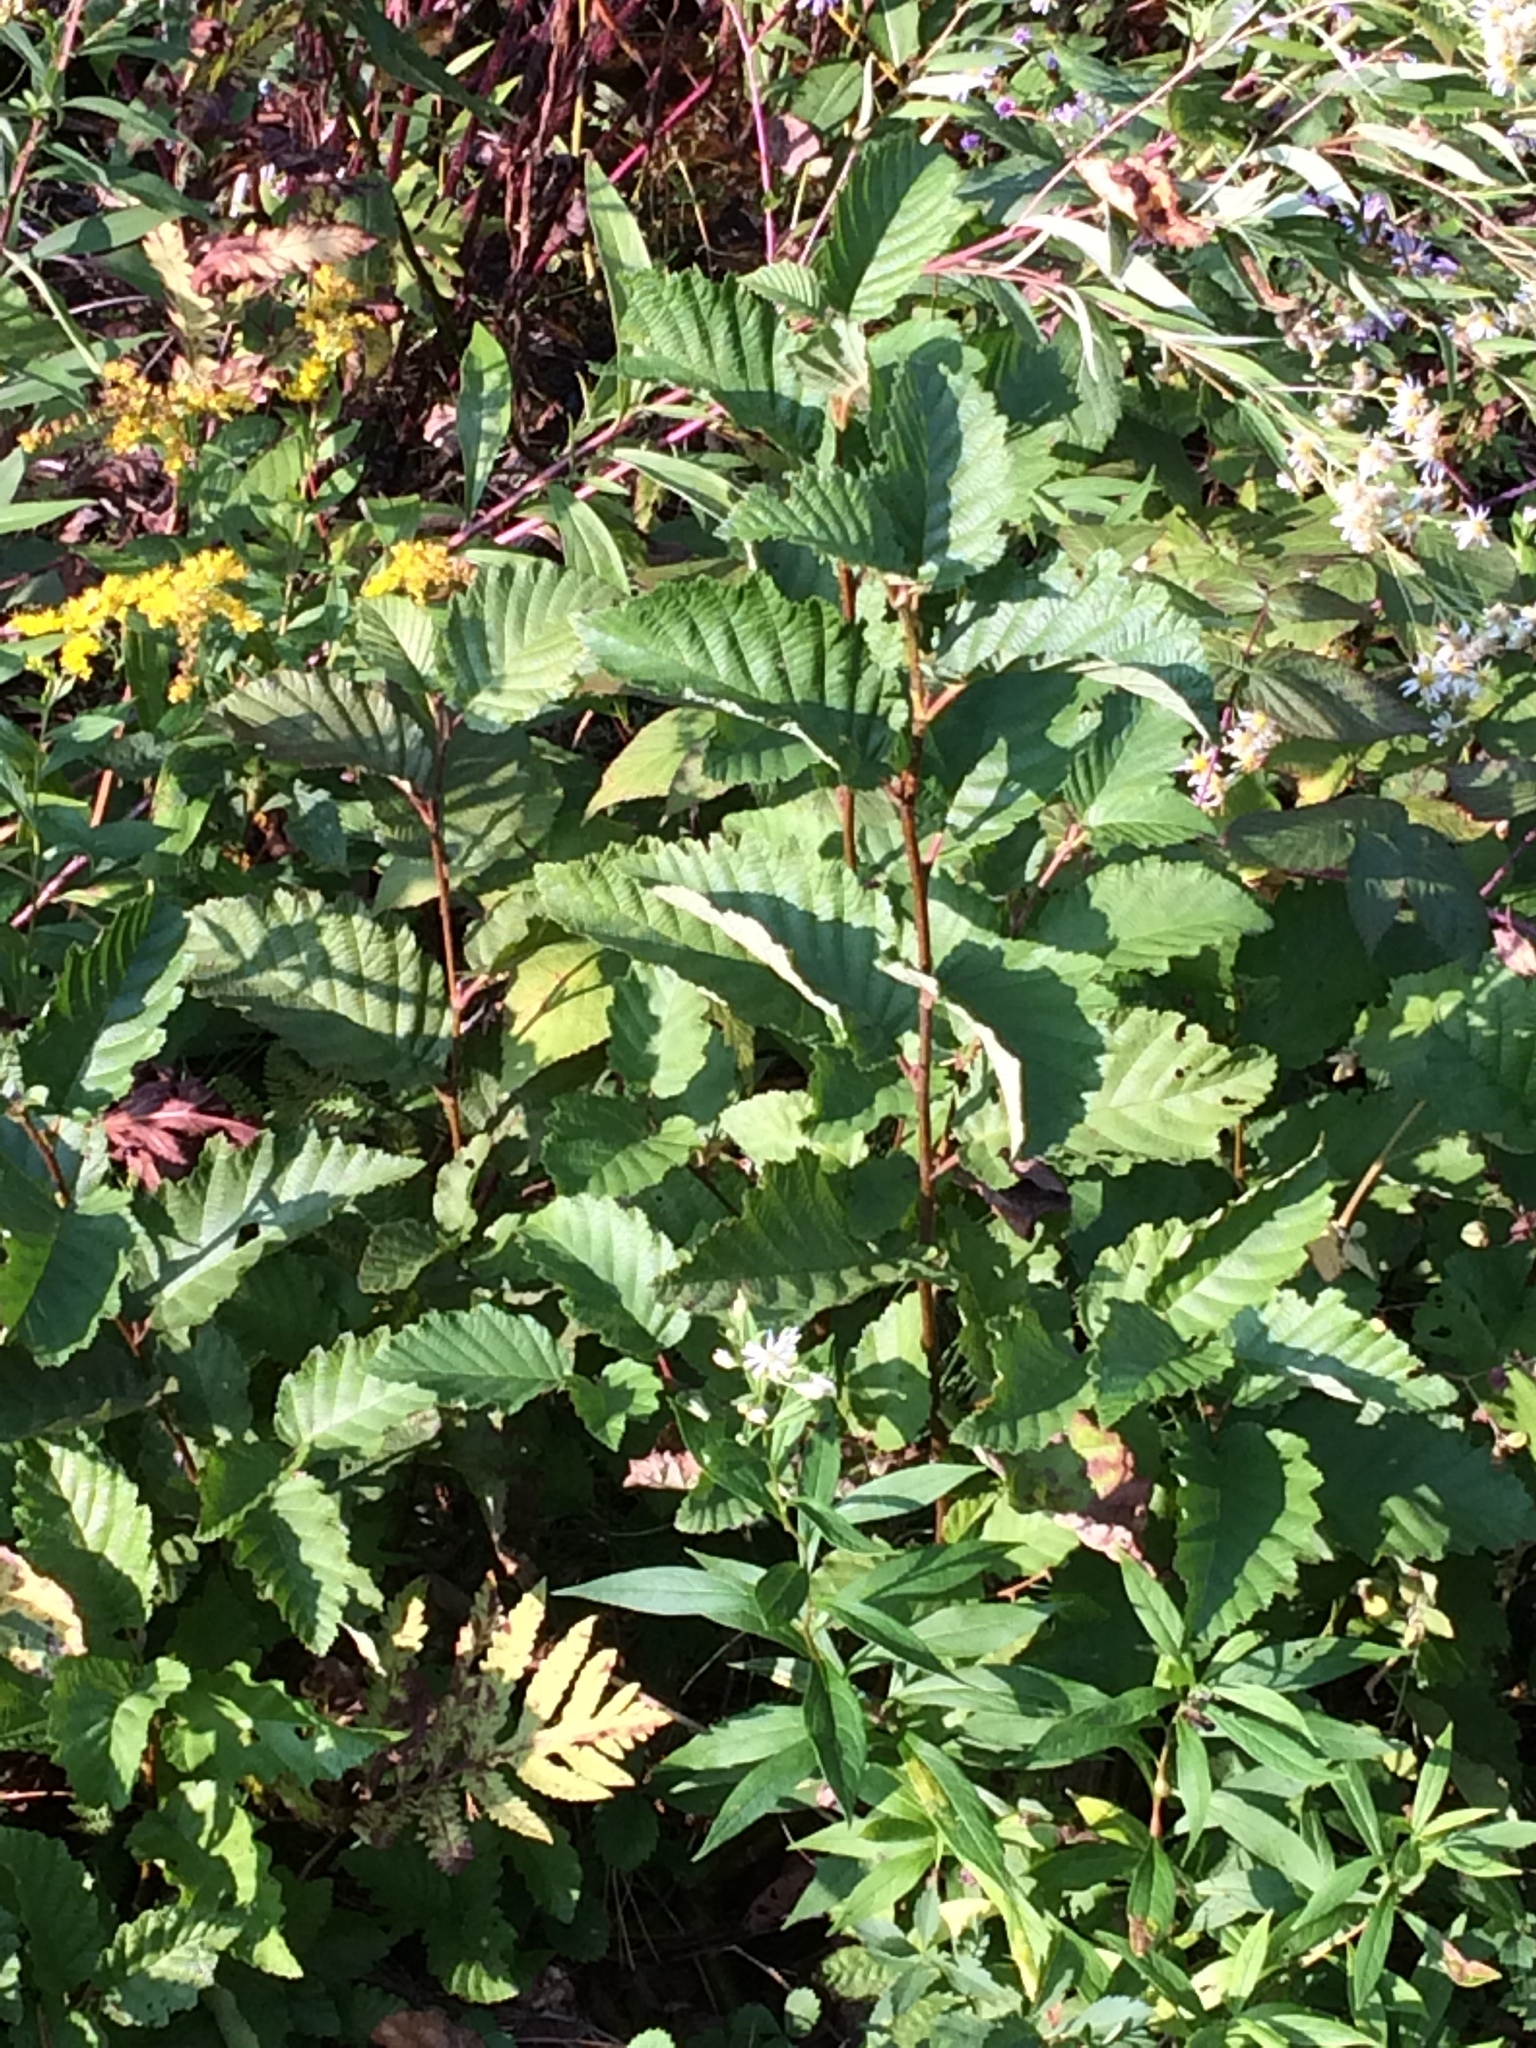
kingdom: Plantae
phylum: Tracheophyta
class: Magnoliopsida
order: Fagales
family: Betulaceae
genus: Alnus
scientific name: Alnus incana
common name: Grey alder
